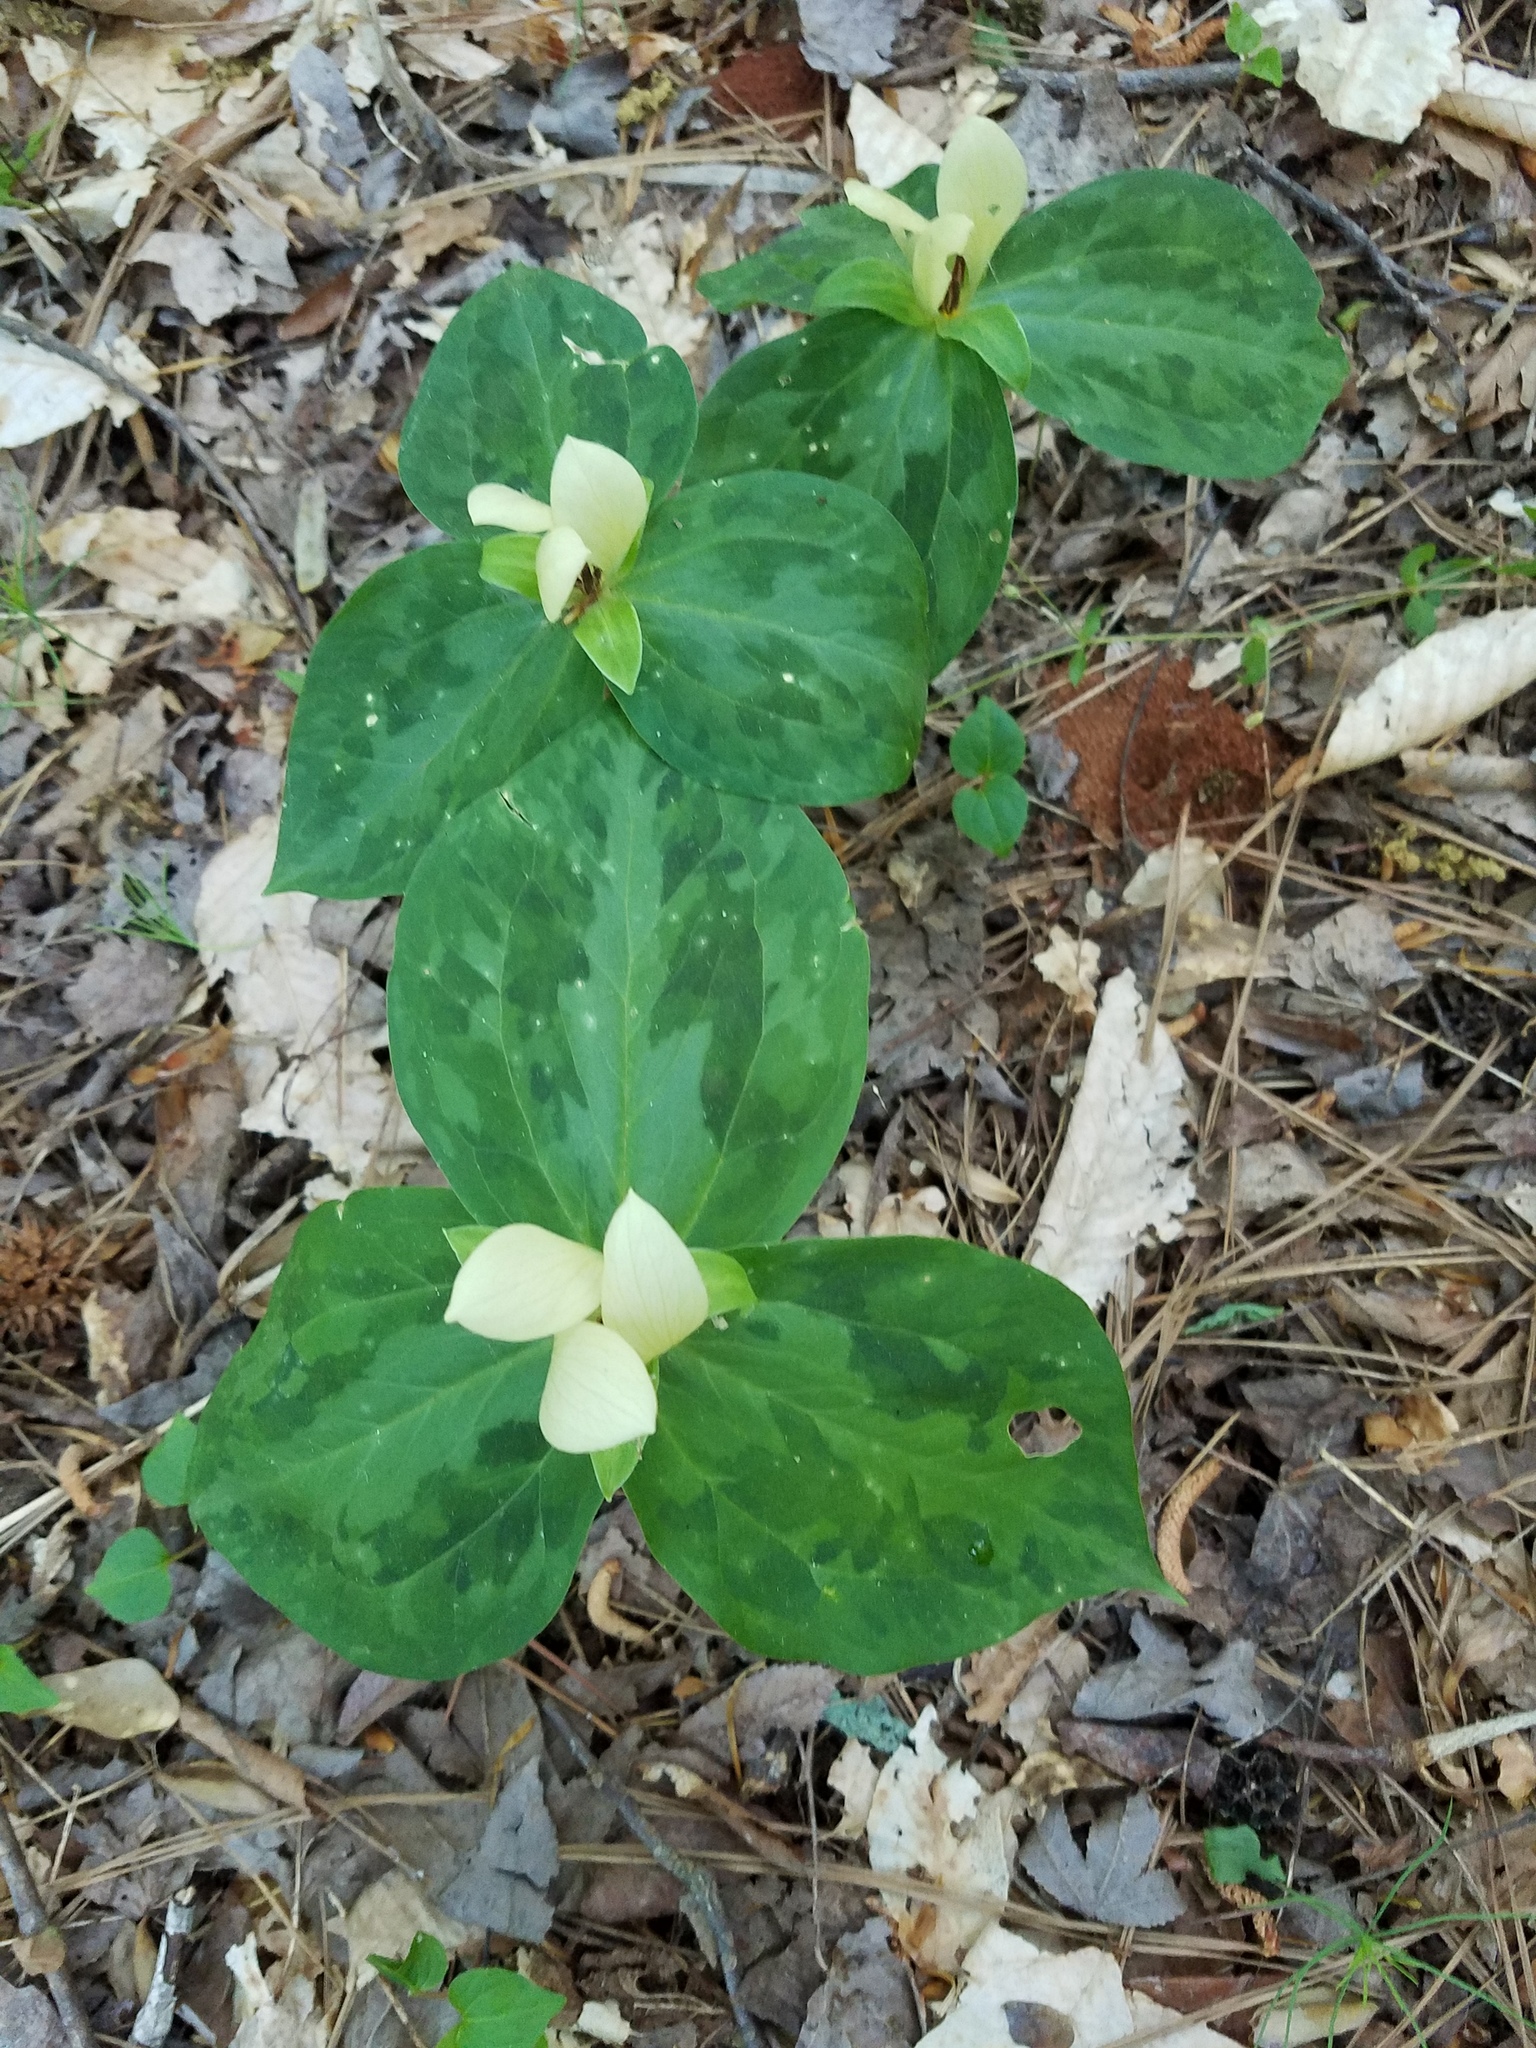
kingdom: Plantae
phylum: Tracheophyta
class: Liliopsida
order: Liliales
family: Melanthiaceae
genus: Trillium
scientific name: Trillium discolor
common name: Faded trillium
